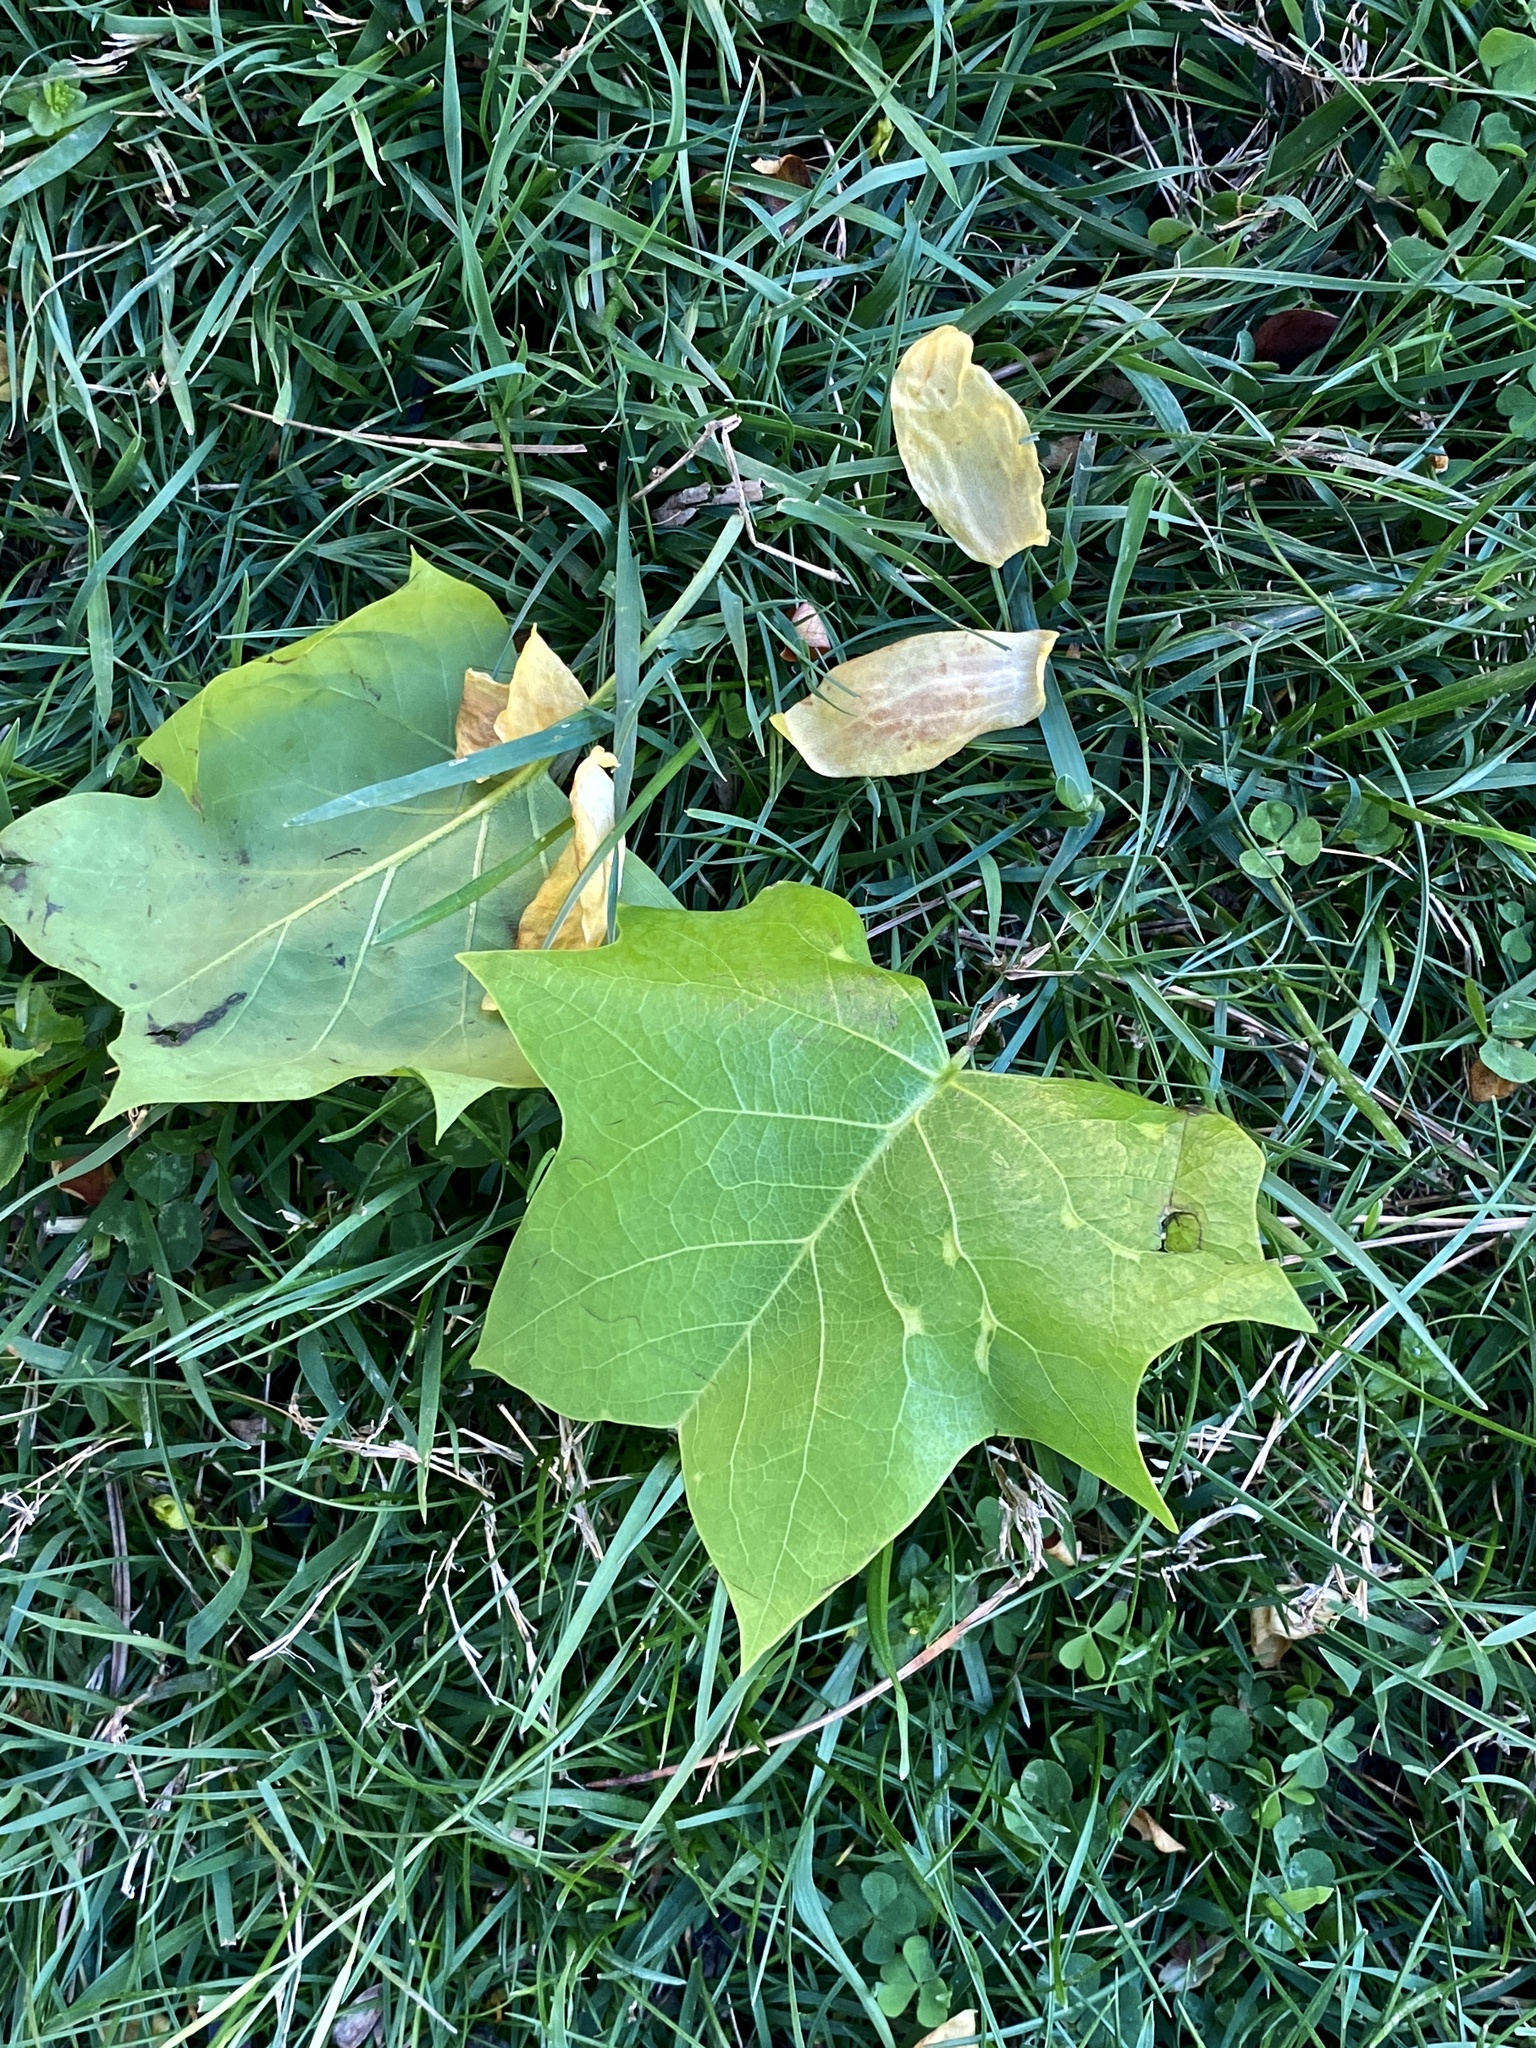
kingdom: Plantae
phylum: Tracheophyta
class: Magnoliopsida
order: Magnoliales
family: Magnoliaceae
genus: Liriodendron
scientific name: Liriodendron tulipifera
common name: Tulip tree
